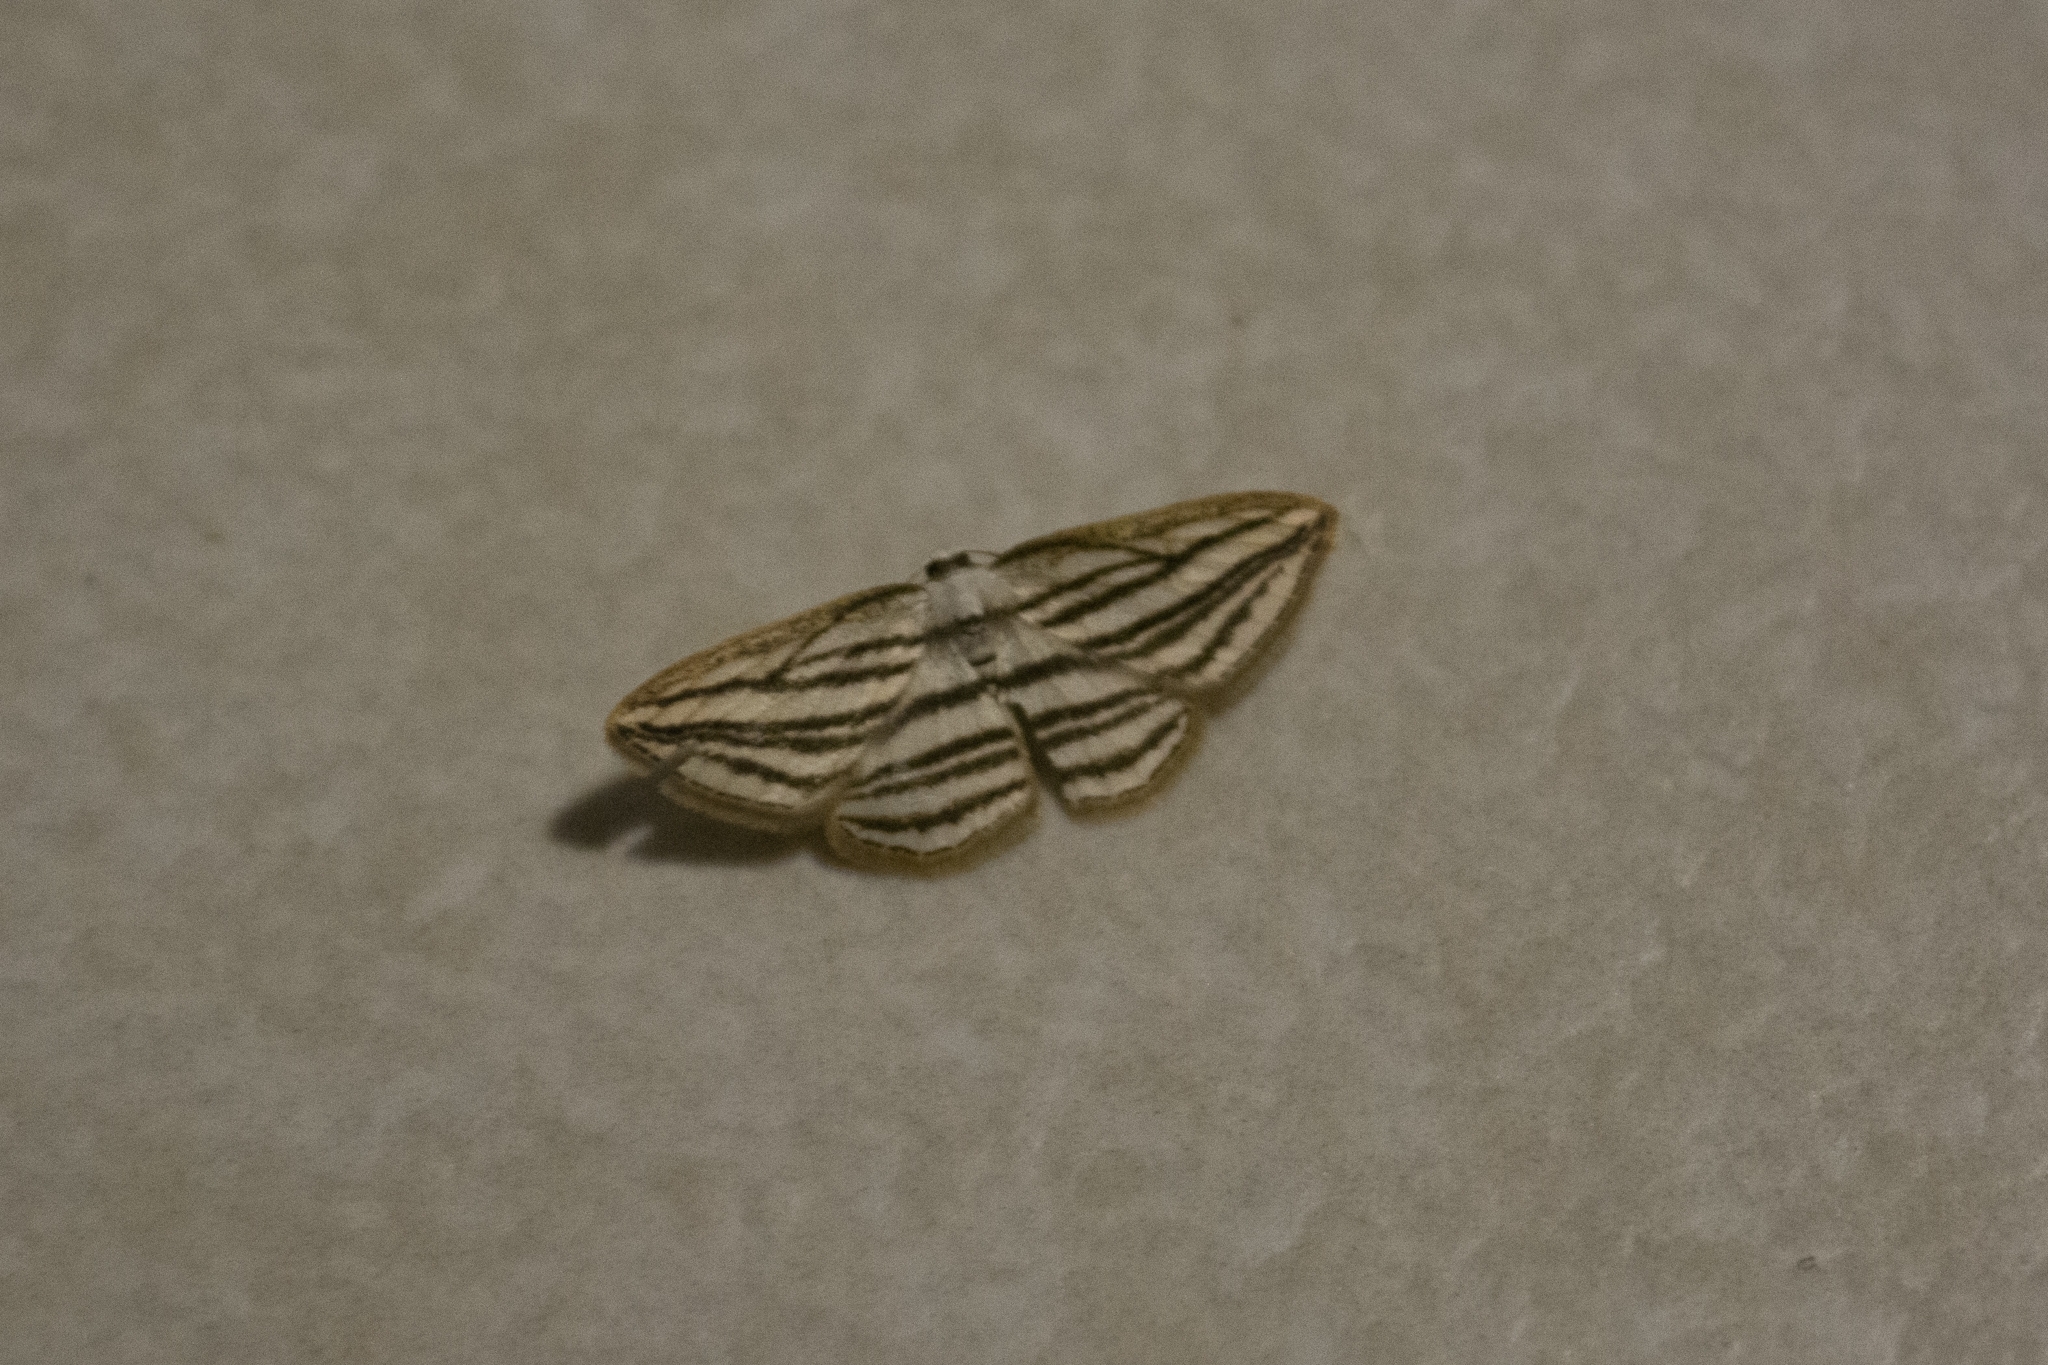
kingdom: Animalia
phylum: Arthropoda
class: Insecta
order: Lepidoptera
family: Geometridae
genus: Bagodares
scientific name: Bagodares castra
